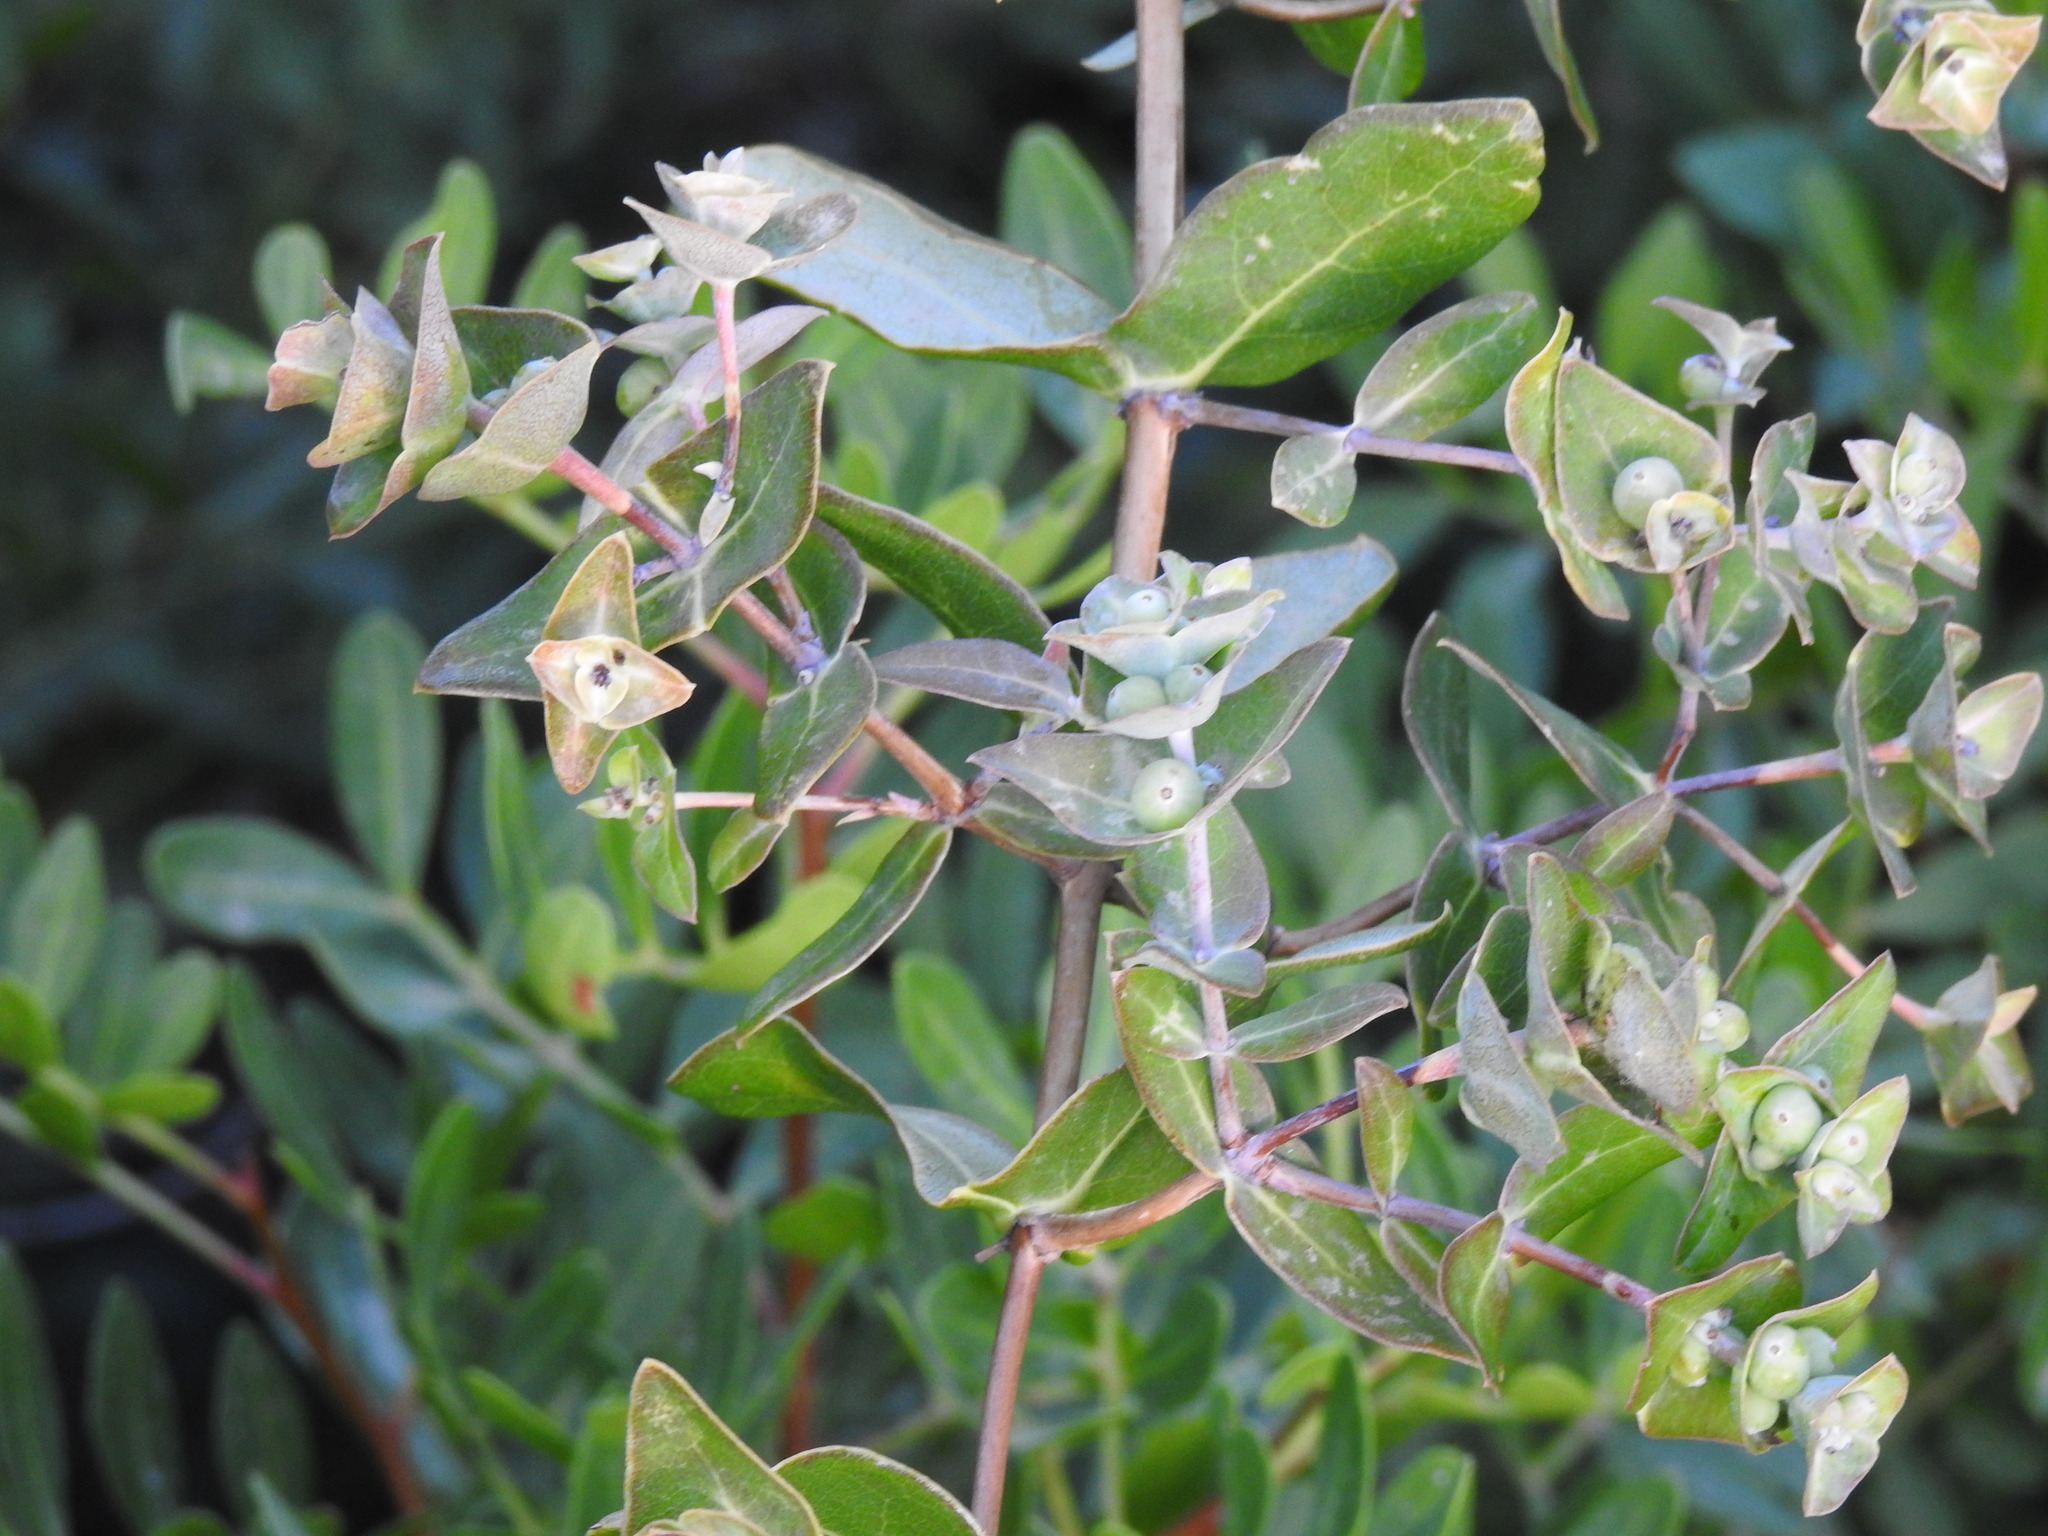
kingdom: Plantae
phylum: Tracheophyta
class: Magnoliopsida
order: Dipsacales
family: Caprifoliaceae
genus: Lonicera
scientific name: Lonicera implexa
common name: Minorca honeysuckle
